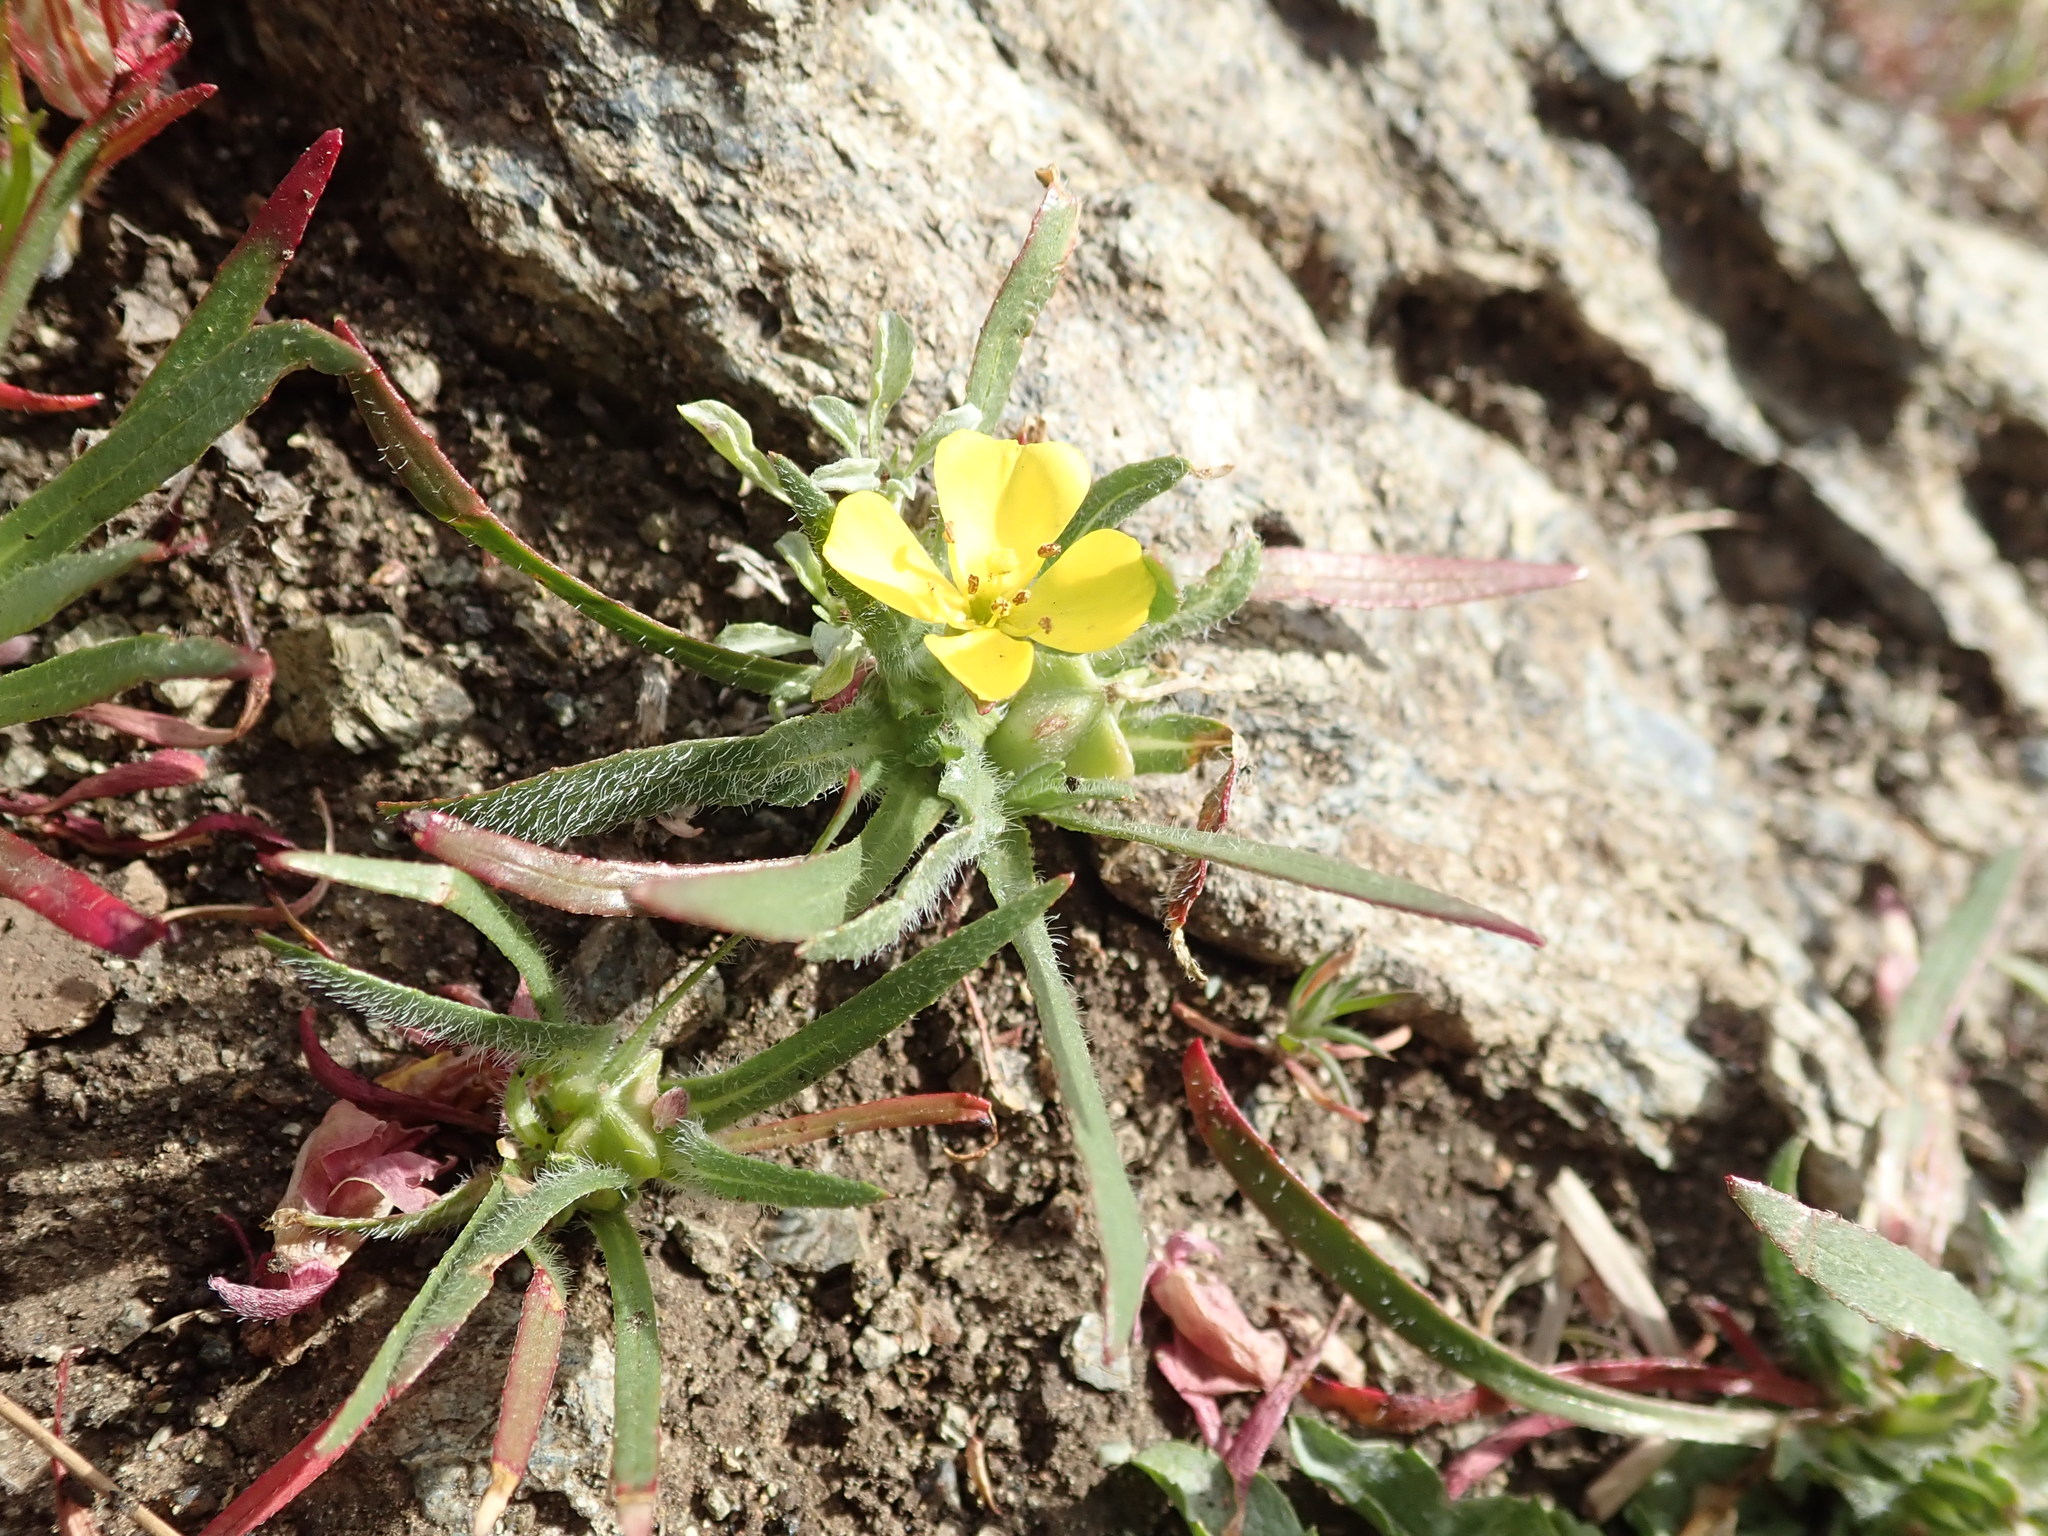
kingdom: Plantae
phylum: Tracheophyta
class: Magnoliopsida
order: Myrtales
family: Onagraceae
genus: Tetrapteron
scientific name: Tetrapteron graciliflorum
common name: Hill suncup
